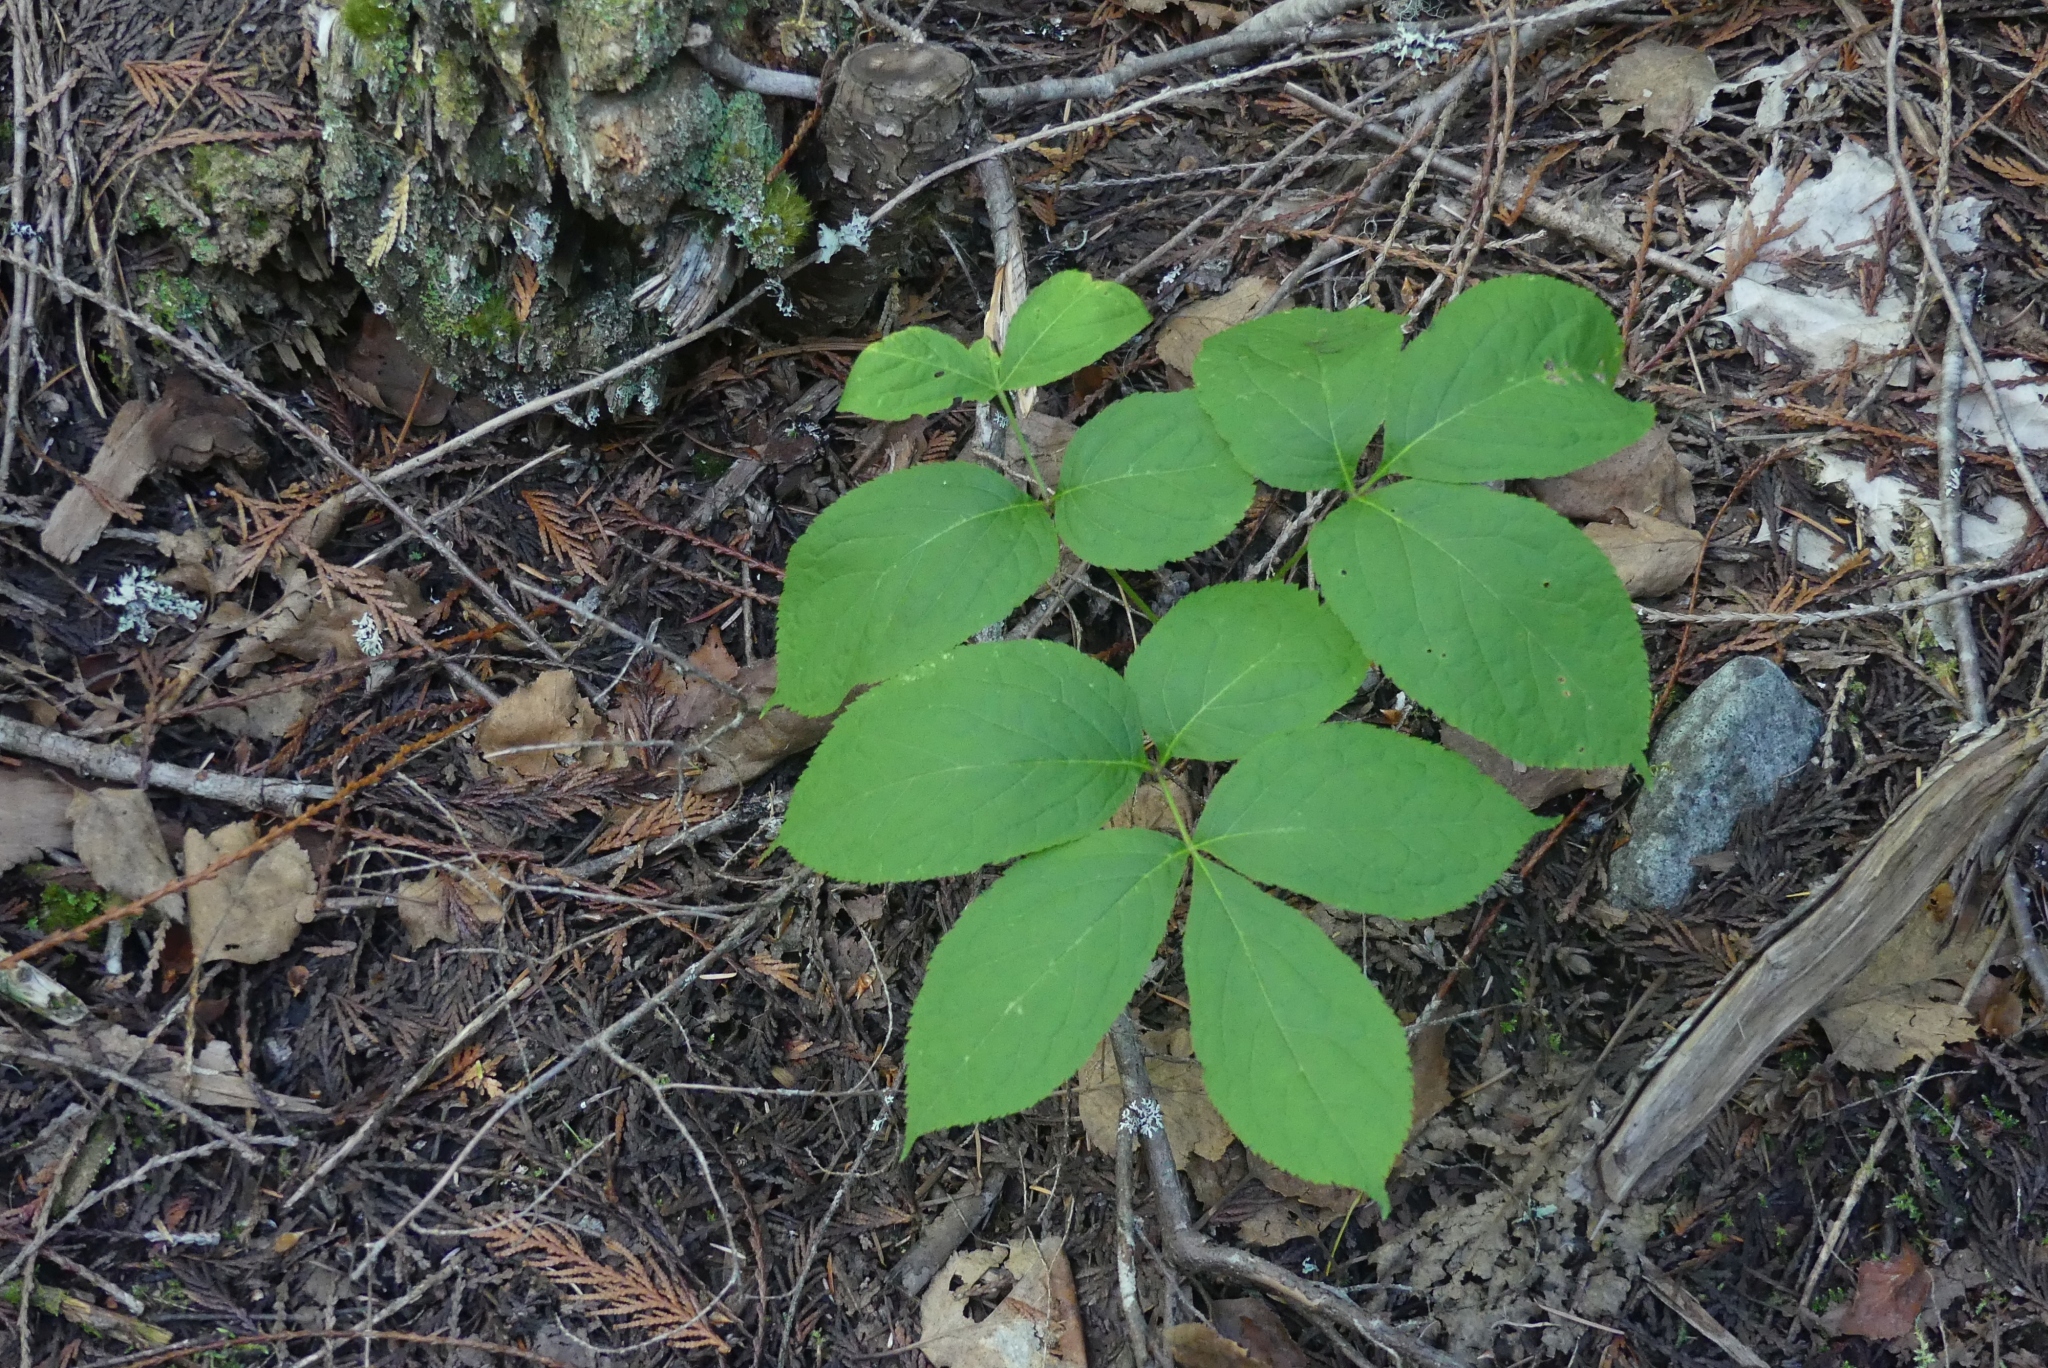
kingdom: Plantae
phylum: Tracheophyta
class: Magnoliopsida
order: Apiales
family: Araliaceae
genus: Aralia
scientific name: Aralia nudicaulis
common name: Wild sarsaparilla
